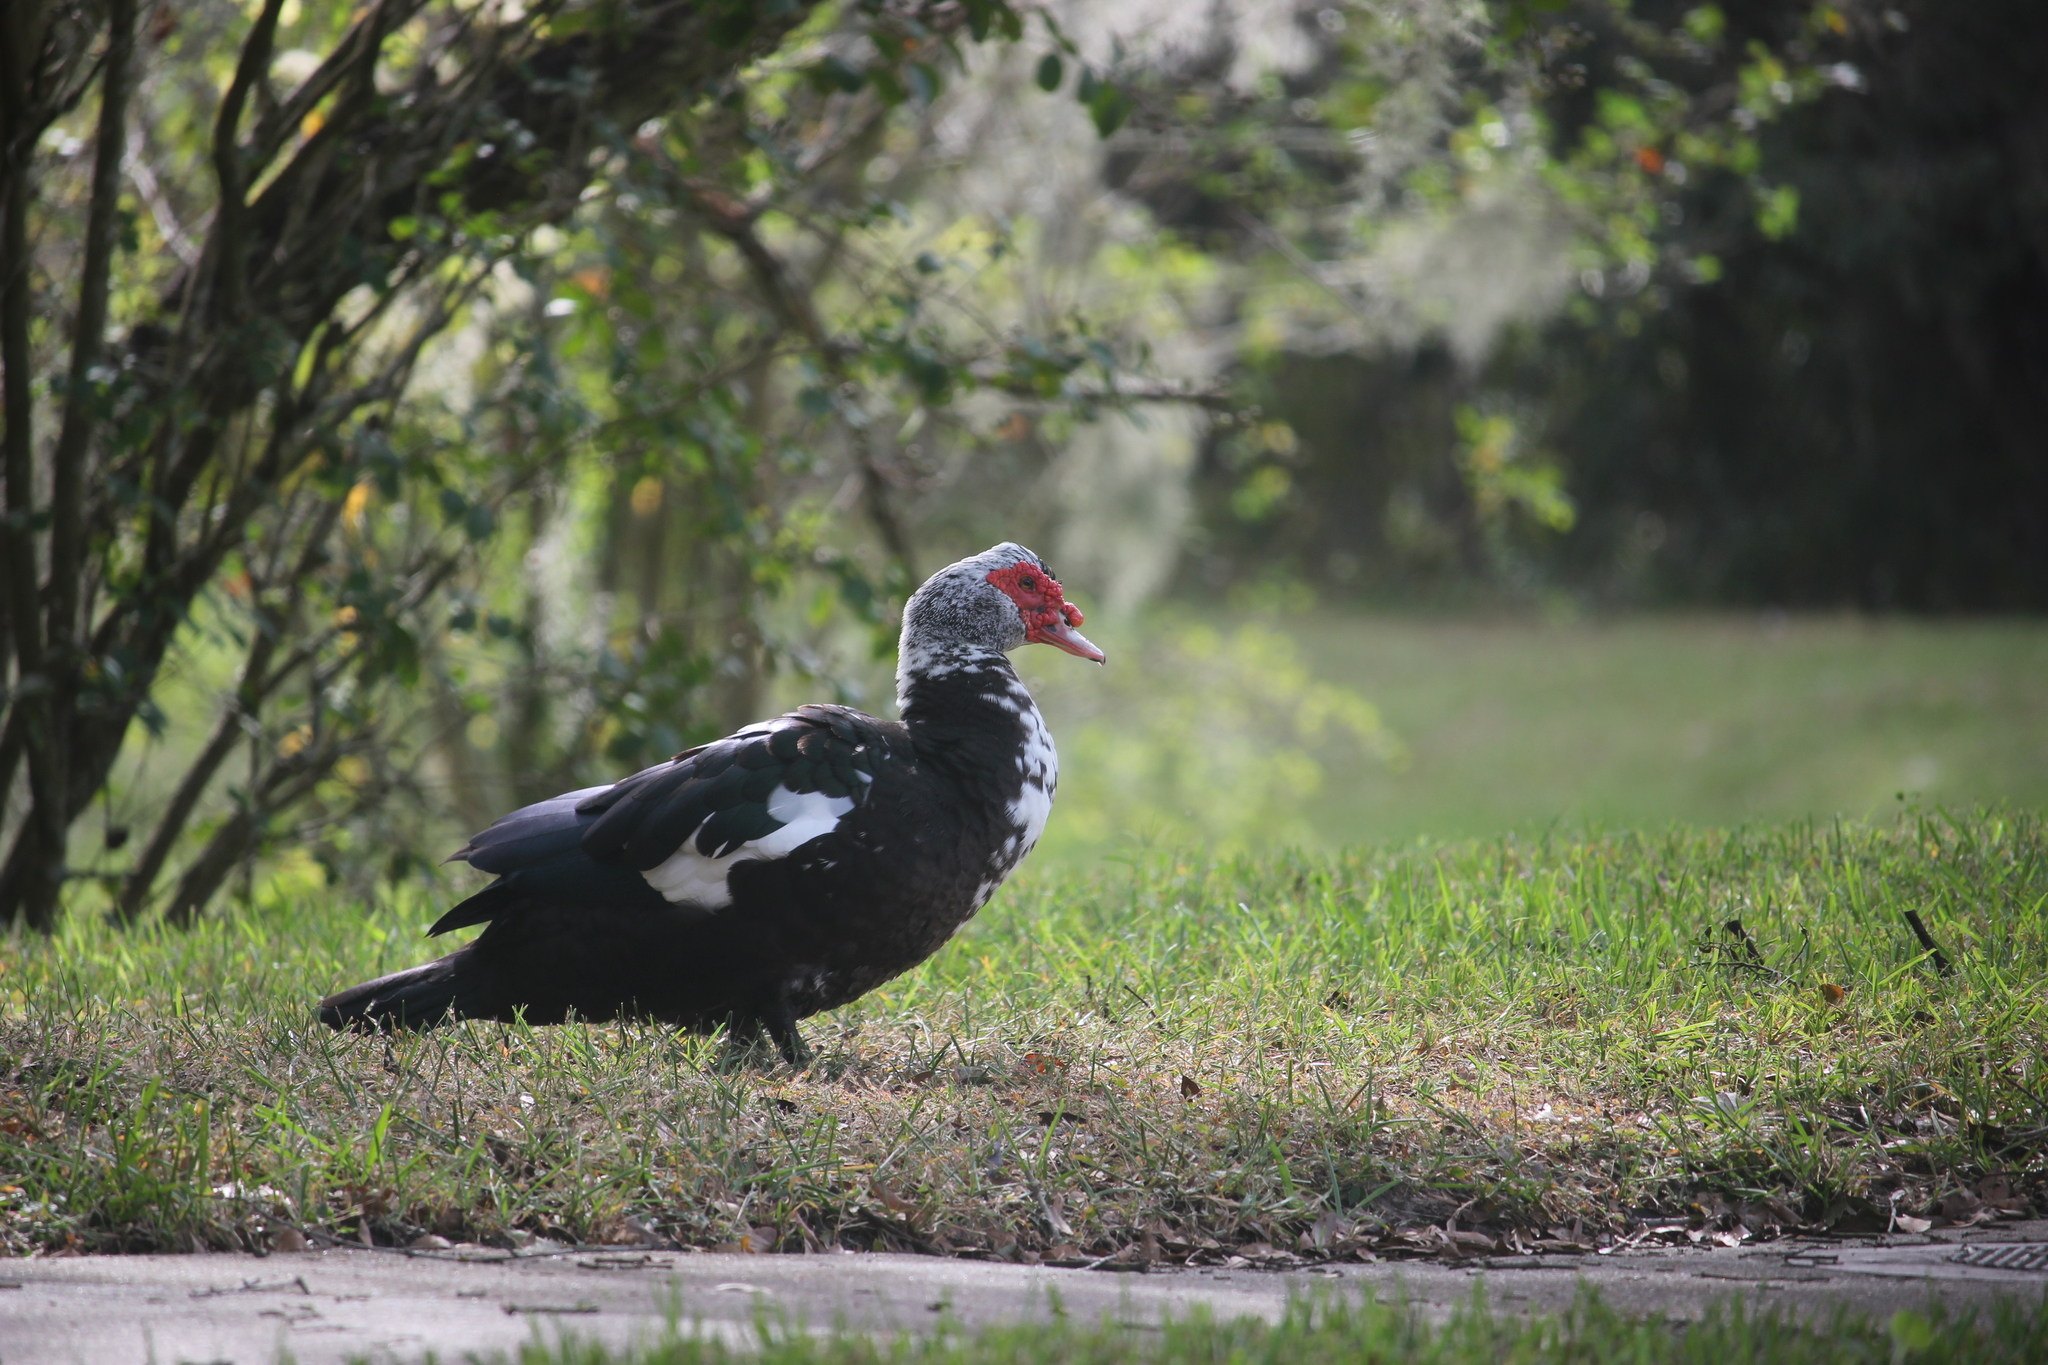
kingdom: Animalia
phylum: Chordata
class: Aves
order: Anseriformes
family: Anatidae
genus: Cairina
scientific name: Cairina moschata
